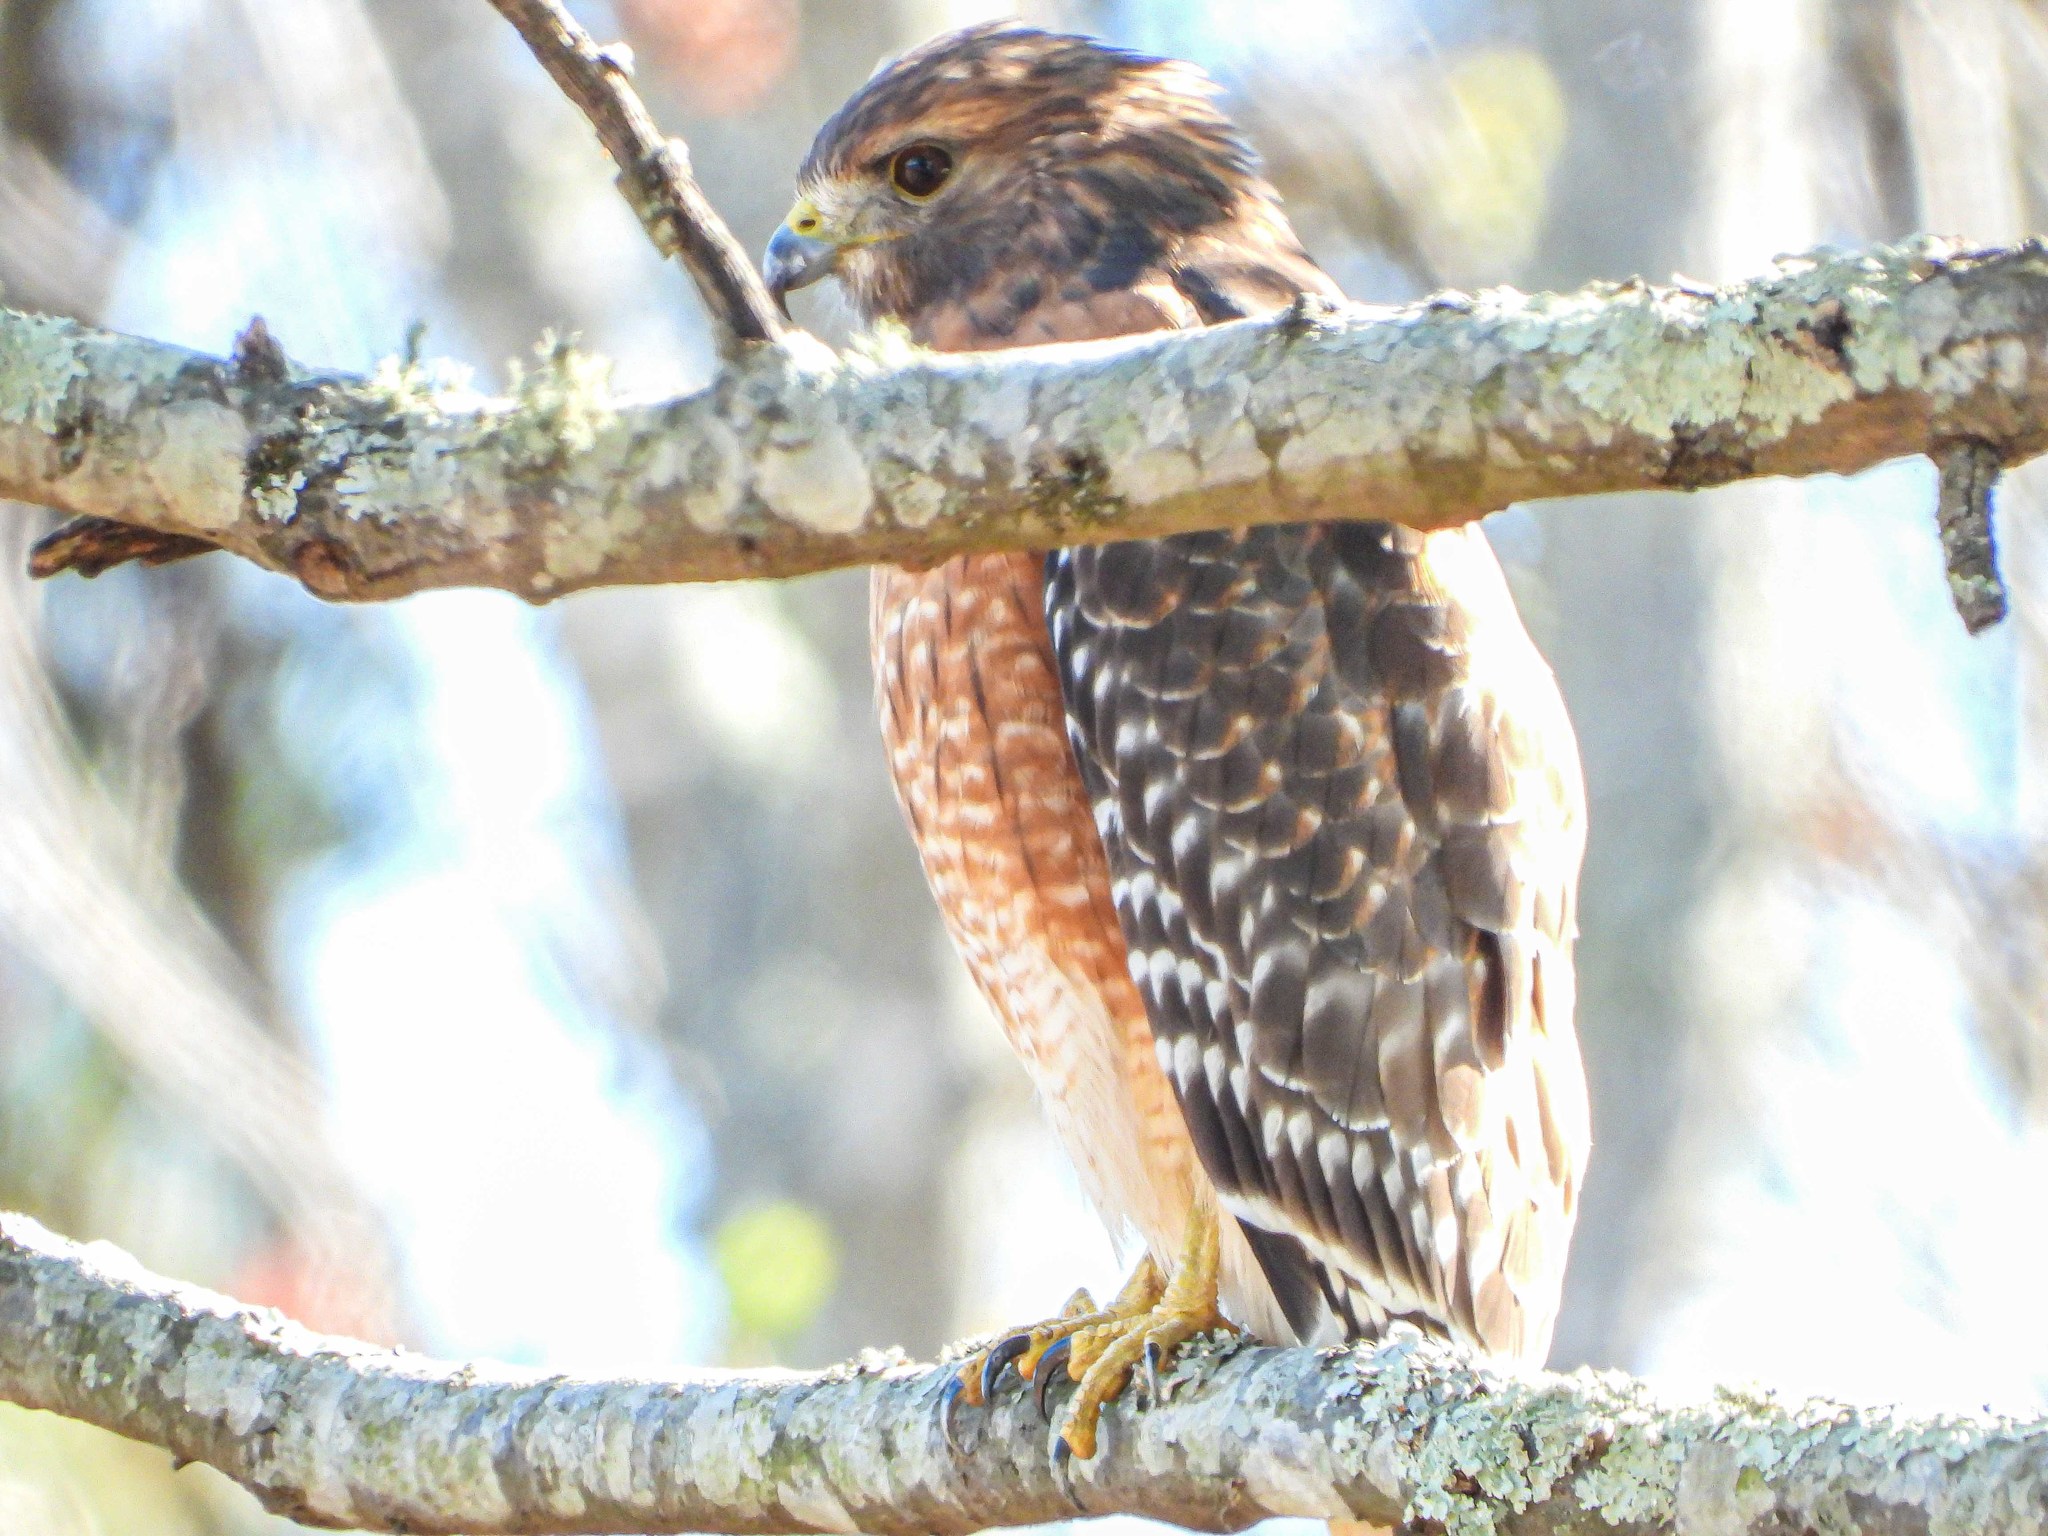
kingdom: Animalia
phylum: Chordata
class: Aves
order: Accipitriformes
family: Accipitridae
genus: Buteo
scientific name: Buteo lineatus
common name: Red-shouldered hawk
